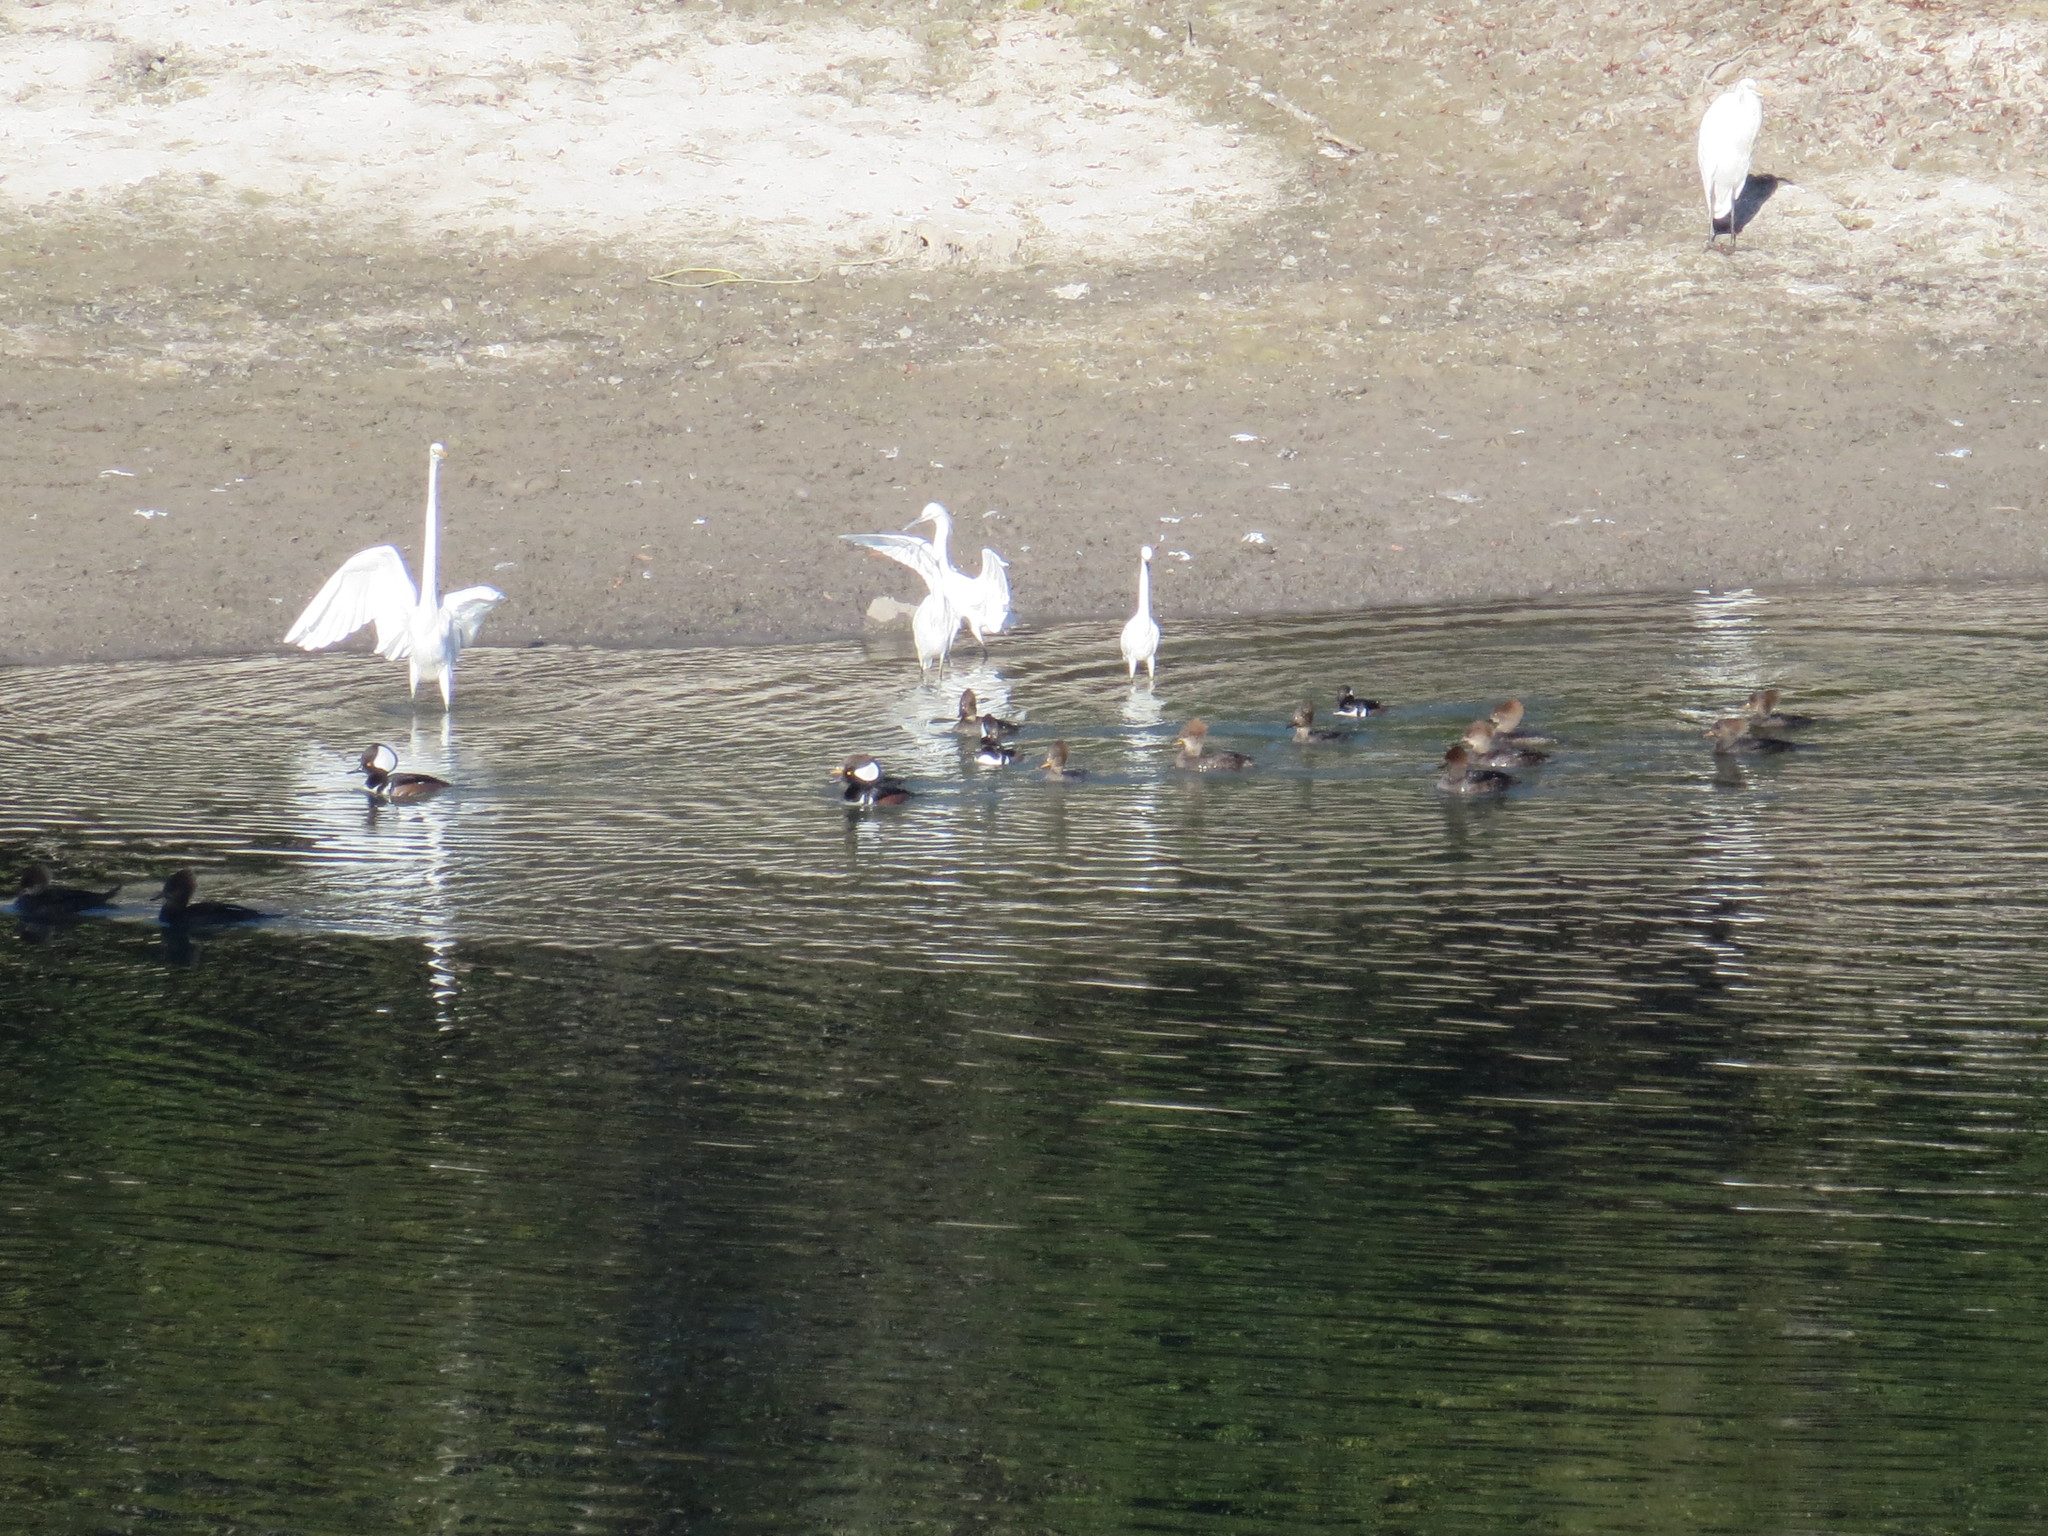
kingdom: Animalia
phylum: Chordata
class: Aves
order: Anseriformes
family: Anatidae
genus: Lophodytes
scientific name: Lophodytes cucullatus
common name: Hooded merganser
